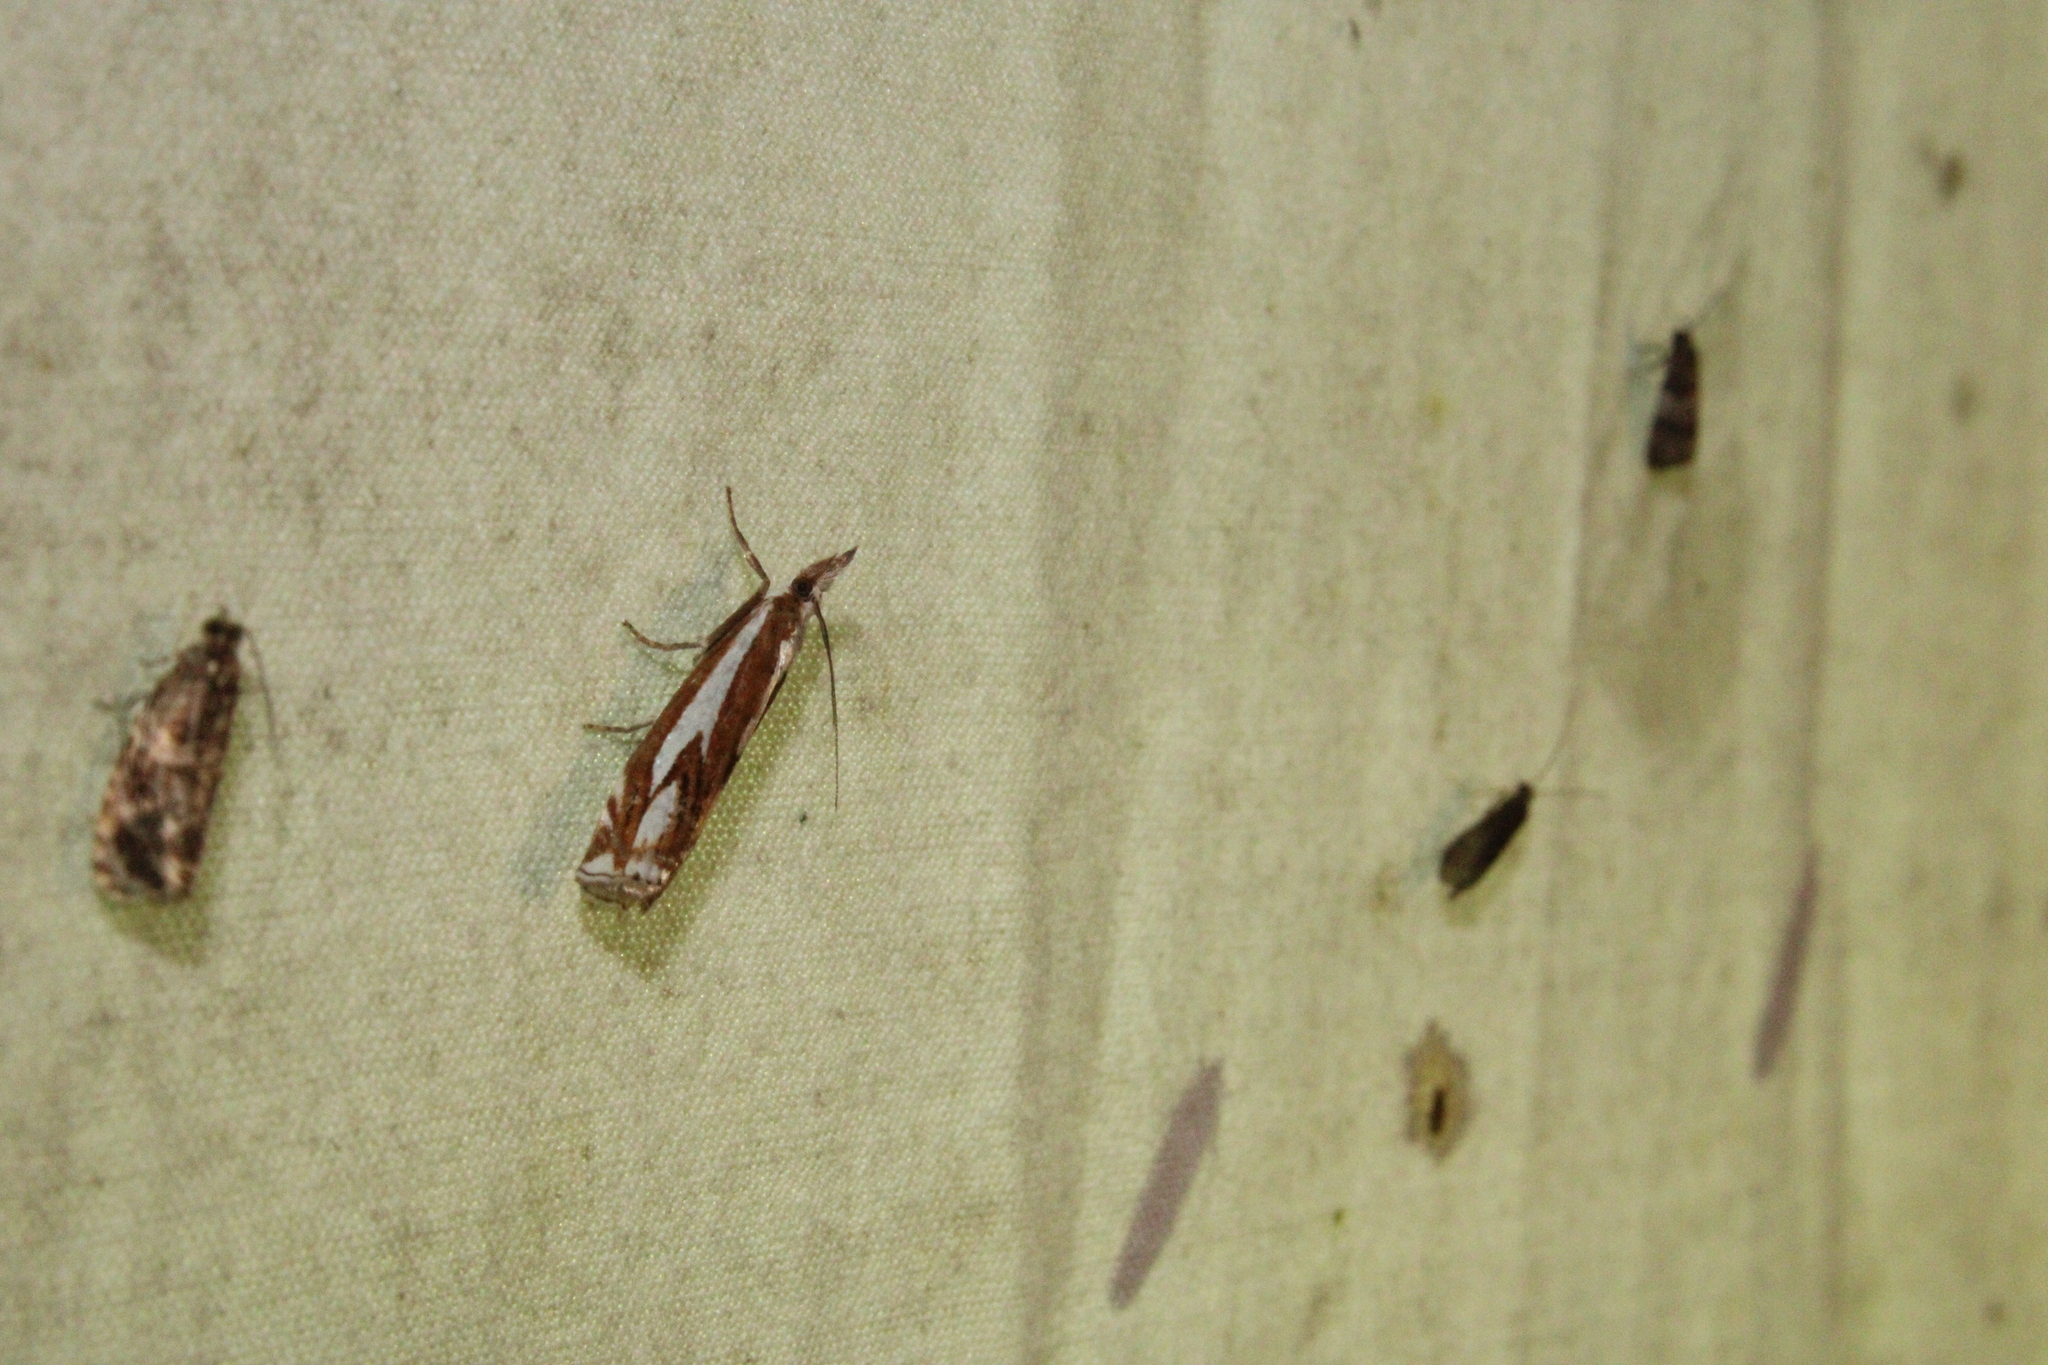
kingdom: Animalia
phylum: Arthropoda
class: Insecta
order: Lepidoptera
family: Crambidae
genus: Crambus
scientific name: Crambus alienellus
